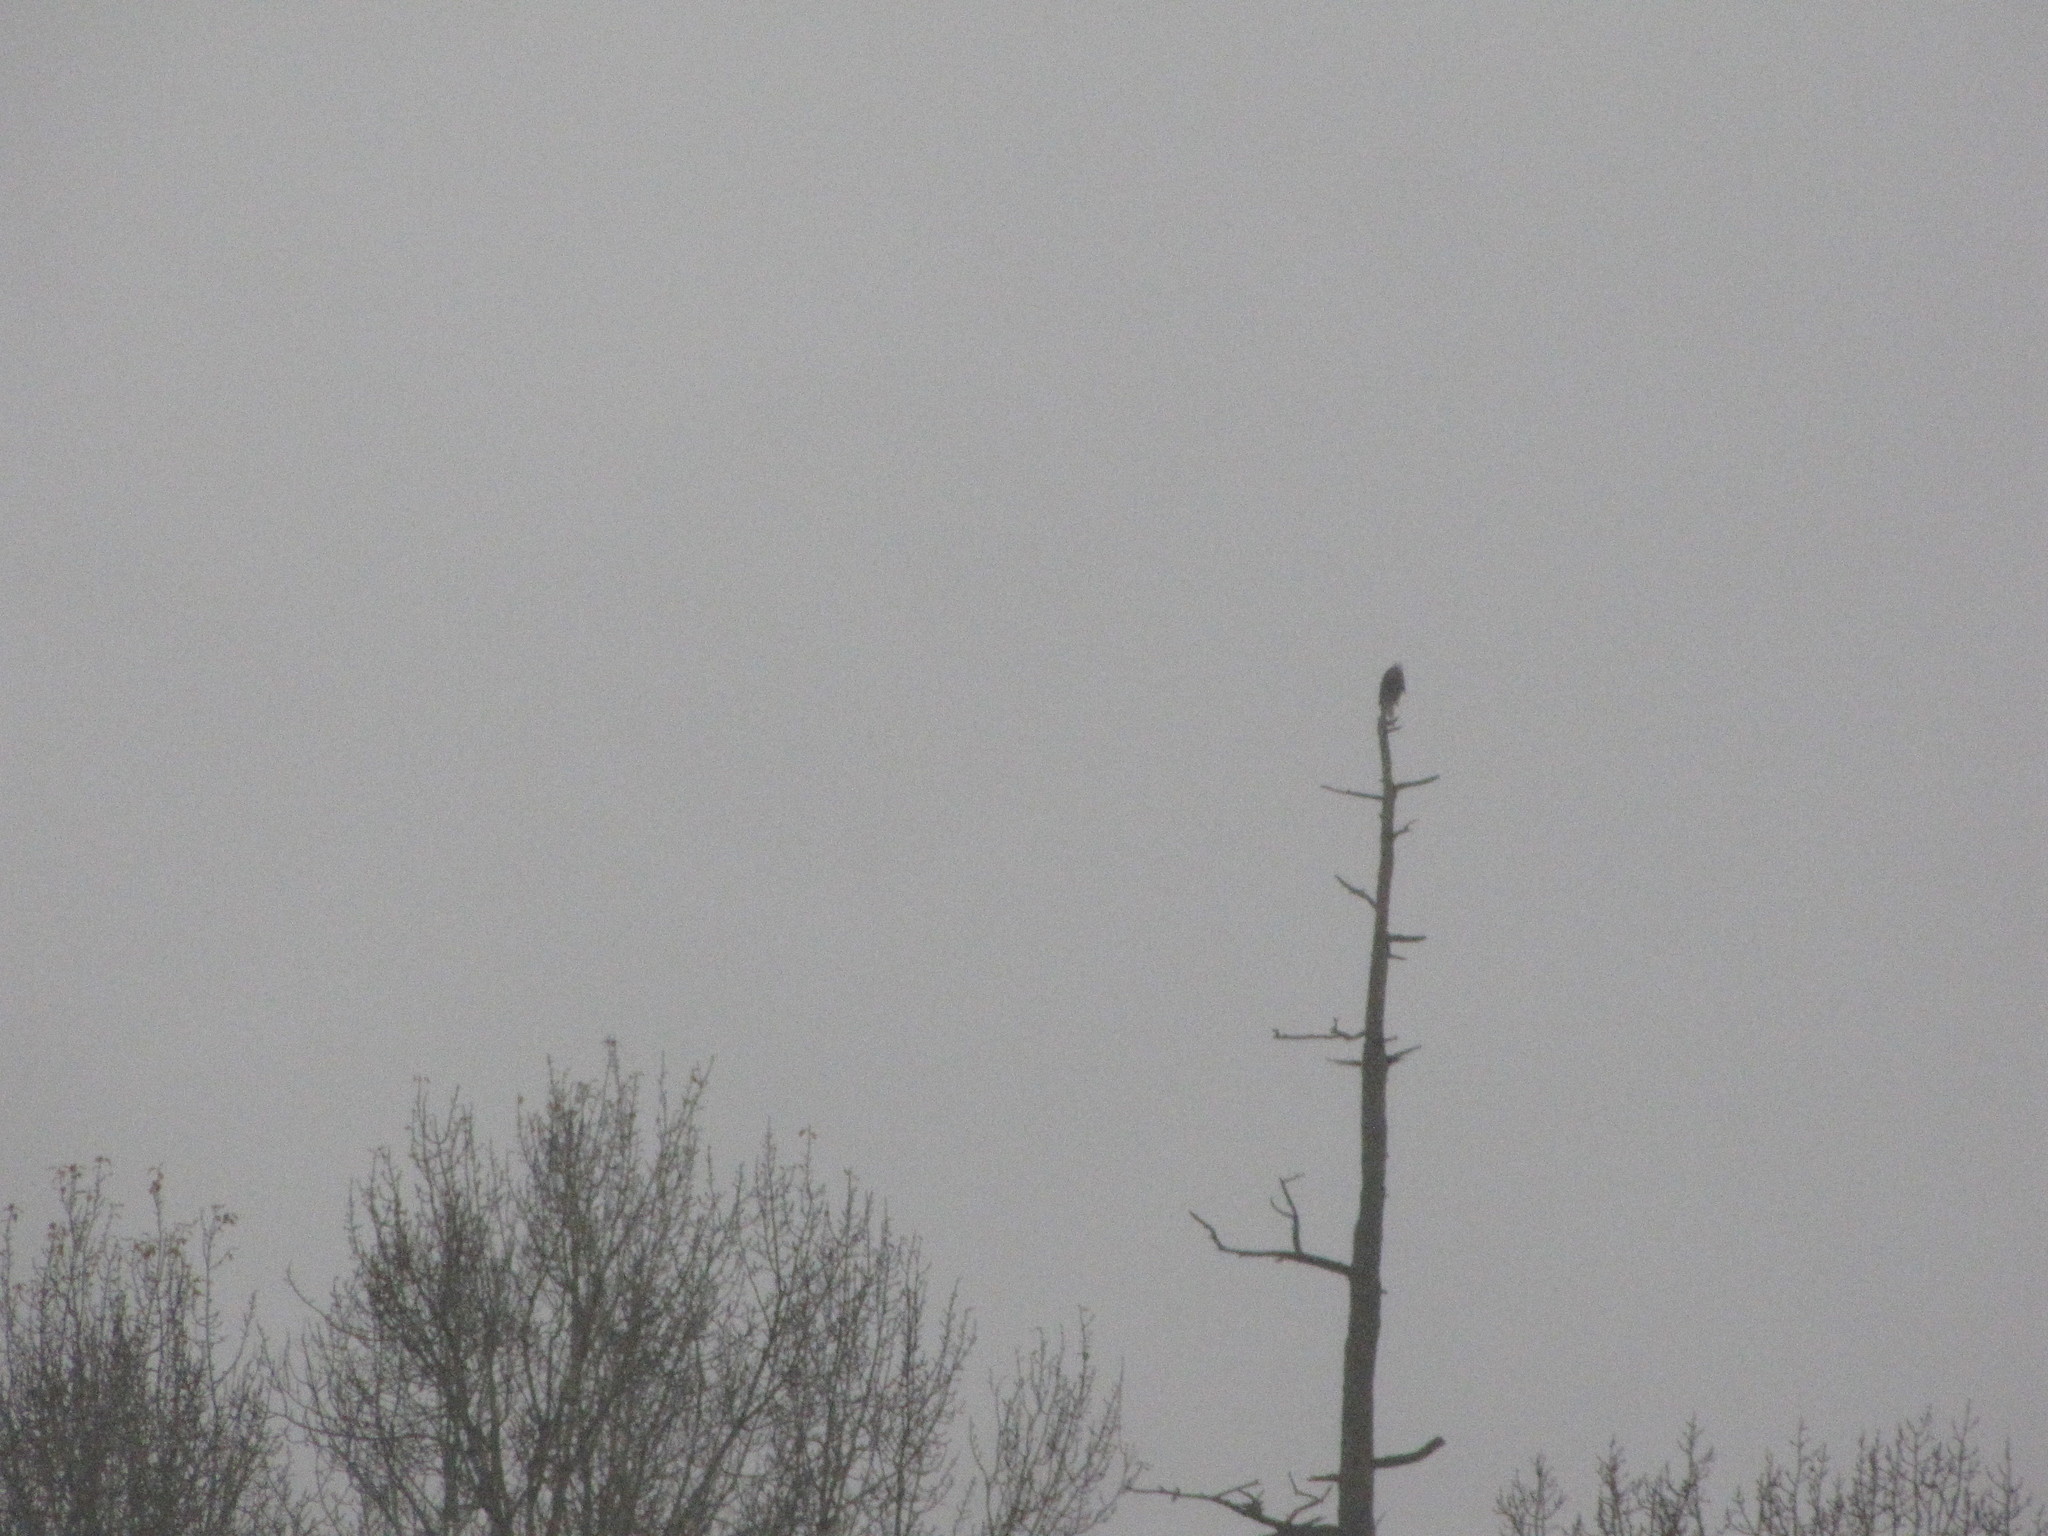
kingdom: Animalia
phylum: Chordata
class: Aves
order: Accipitriformes
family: Accipitridae
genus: Haliaeetus
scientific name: Haliaeetus leucocephalus
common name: Bald eagle
